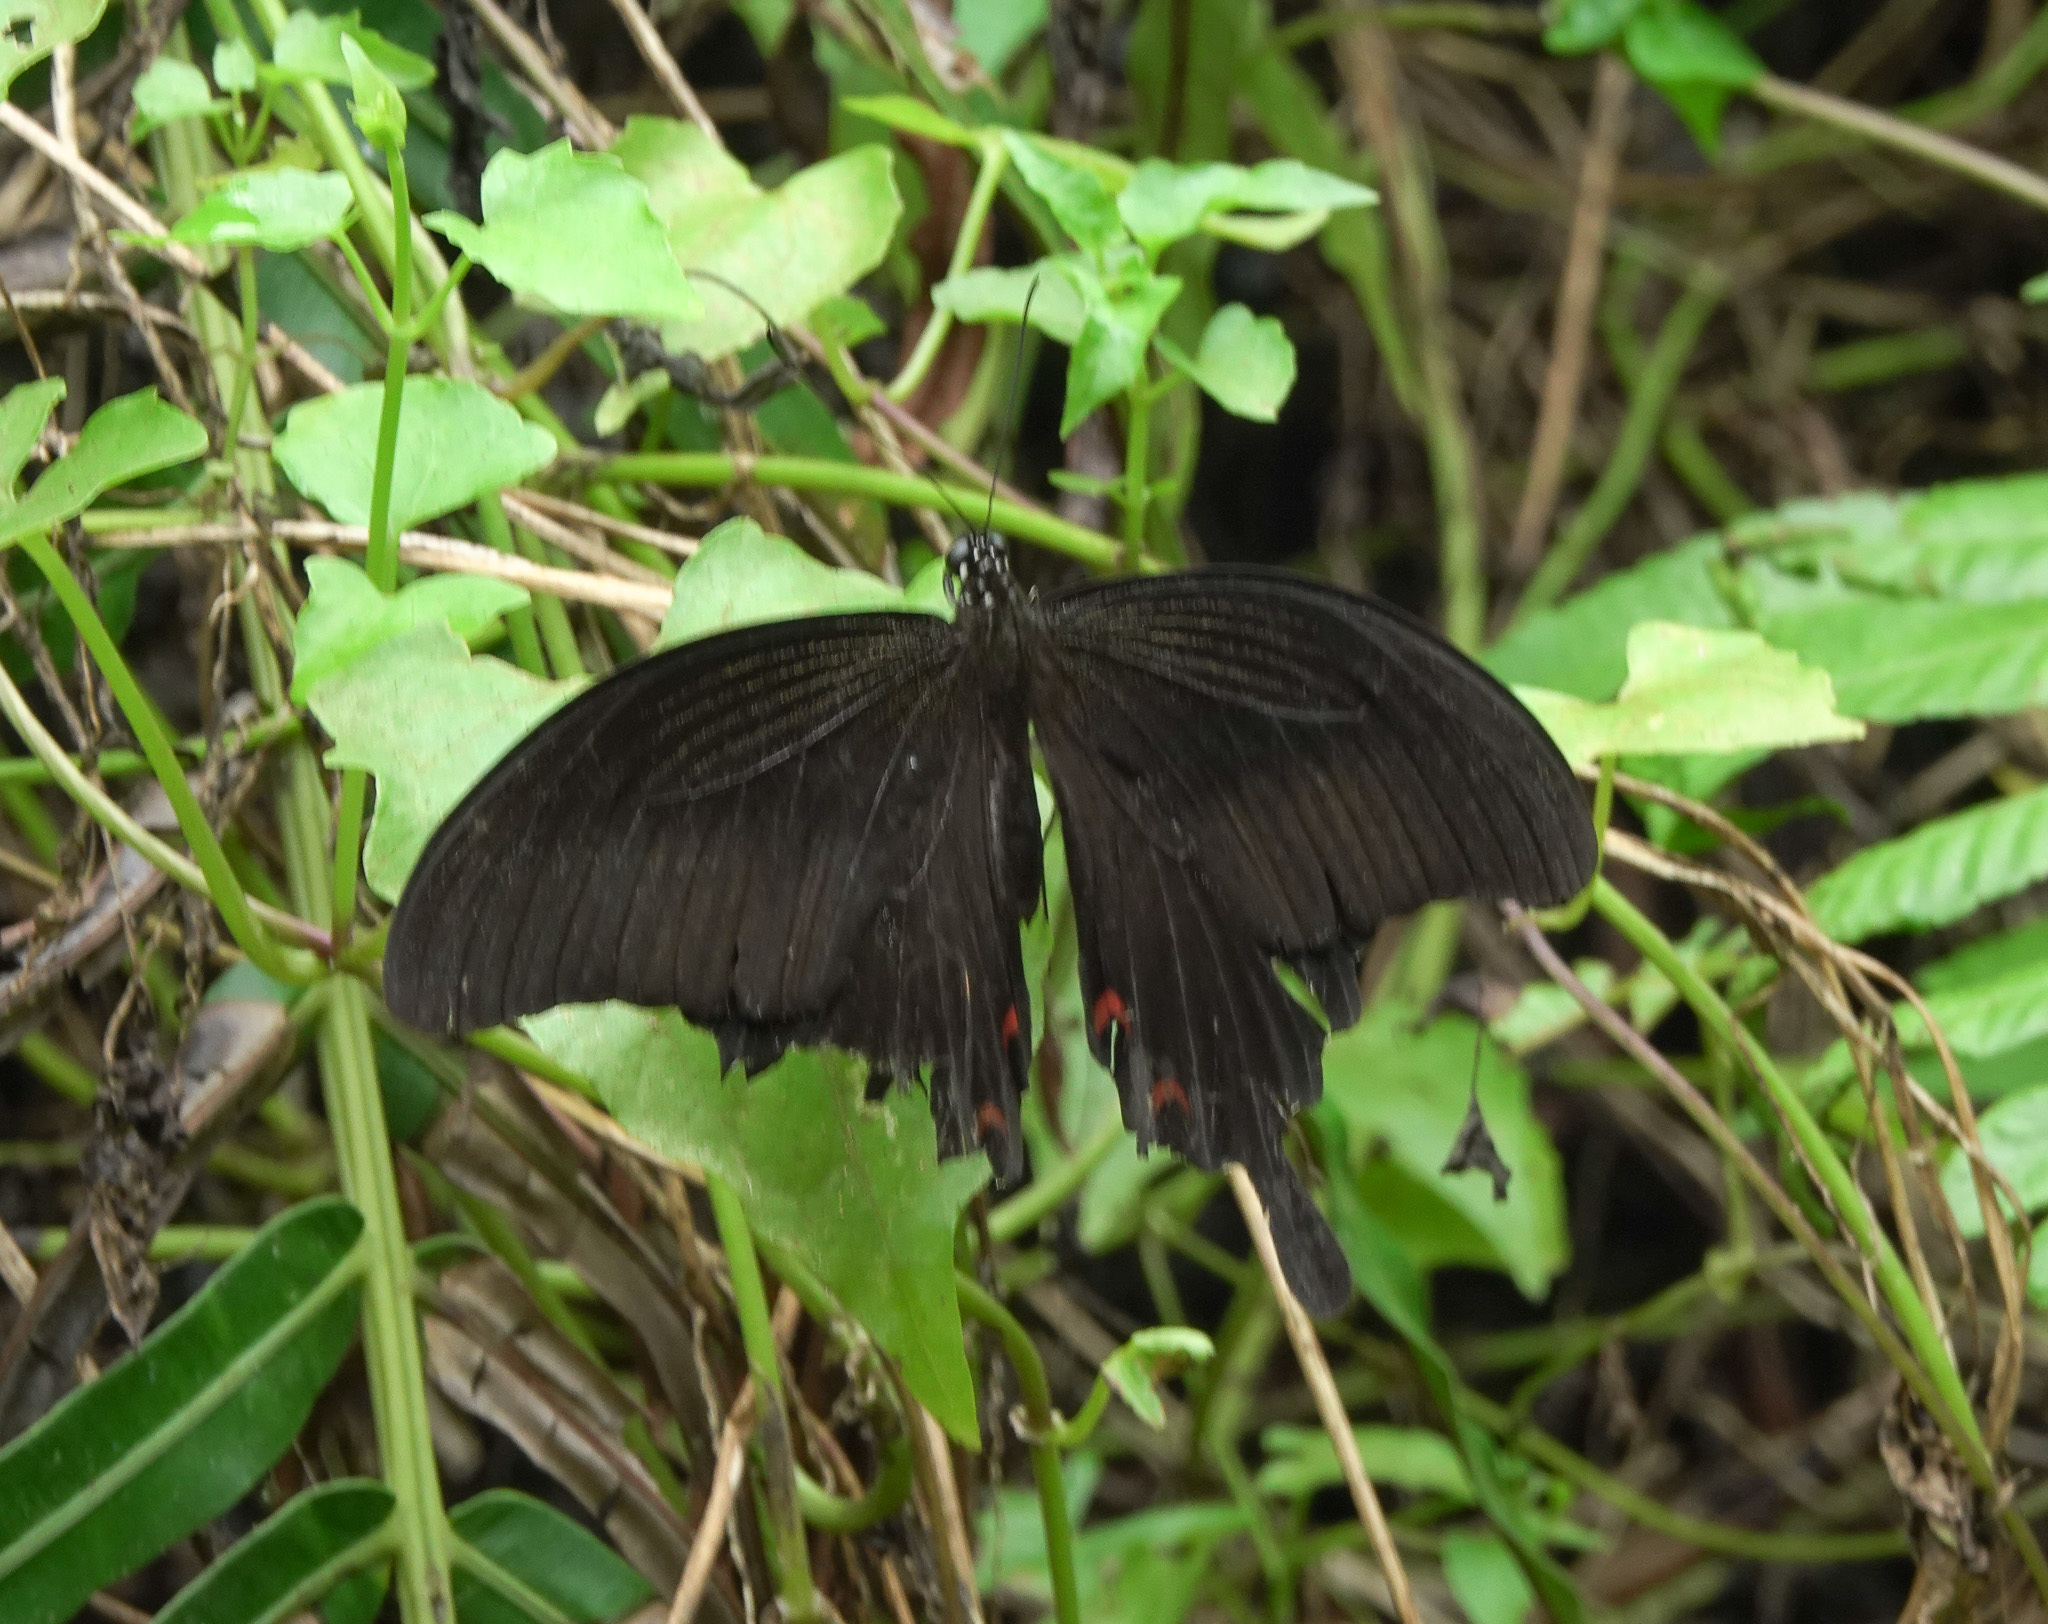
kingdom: Animalia
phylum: Arthropoda
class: Insecta
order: Lepidoptera
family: Papilionidae
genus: Papilio
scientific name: Papilio helenus
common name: Red helen
